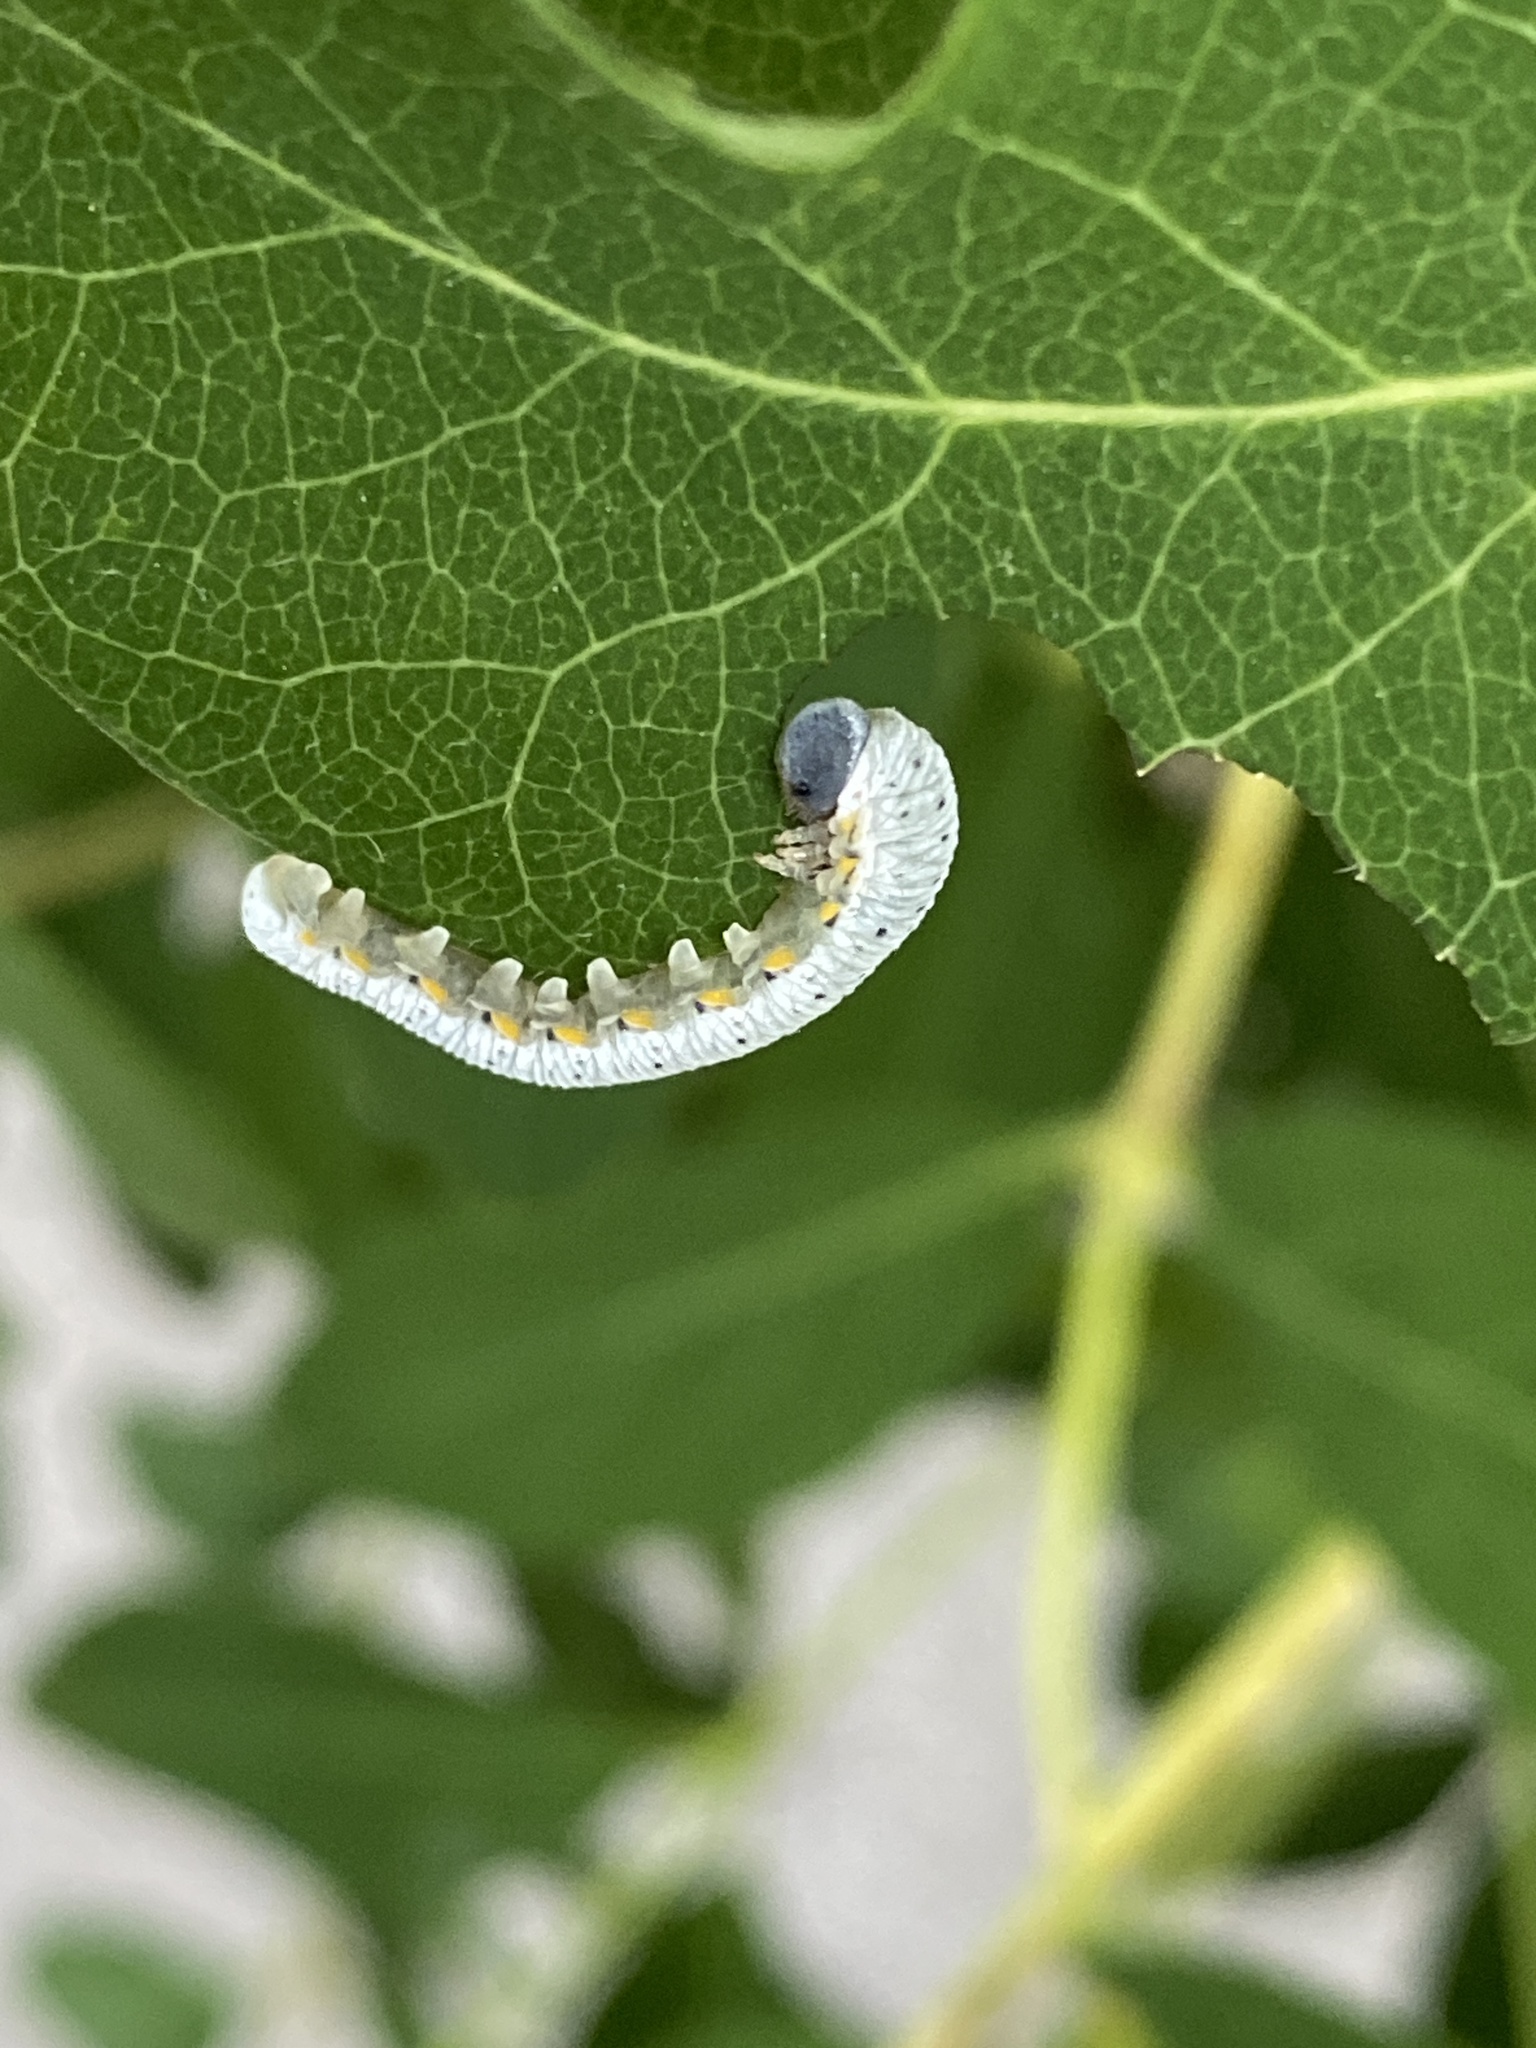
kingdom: Animalia
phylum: Arthropoda
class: Insecta
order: Hymenoptera
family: Cimbicidae
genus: Abia
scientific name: Abia fasciata
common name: Banded honeysuckle sawfly
